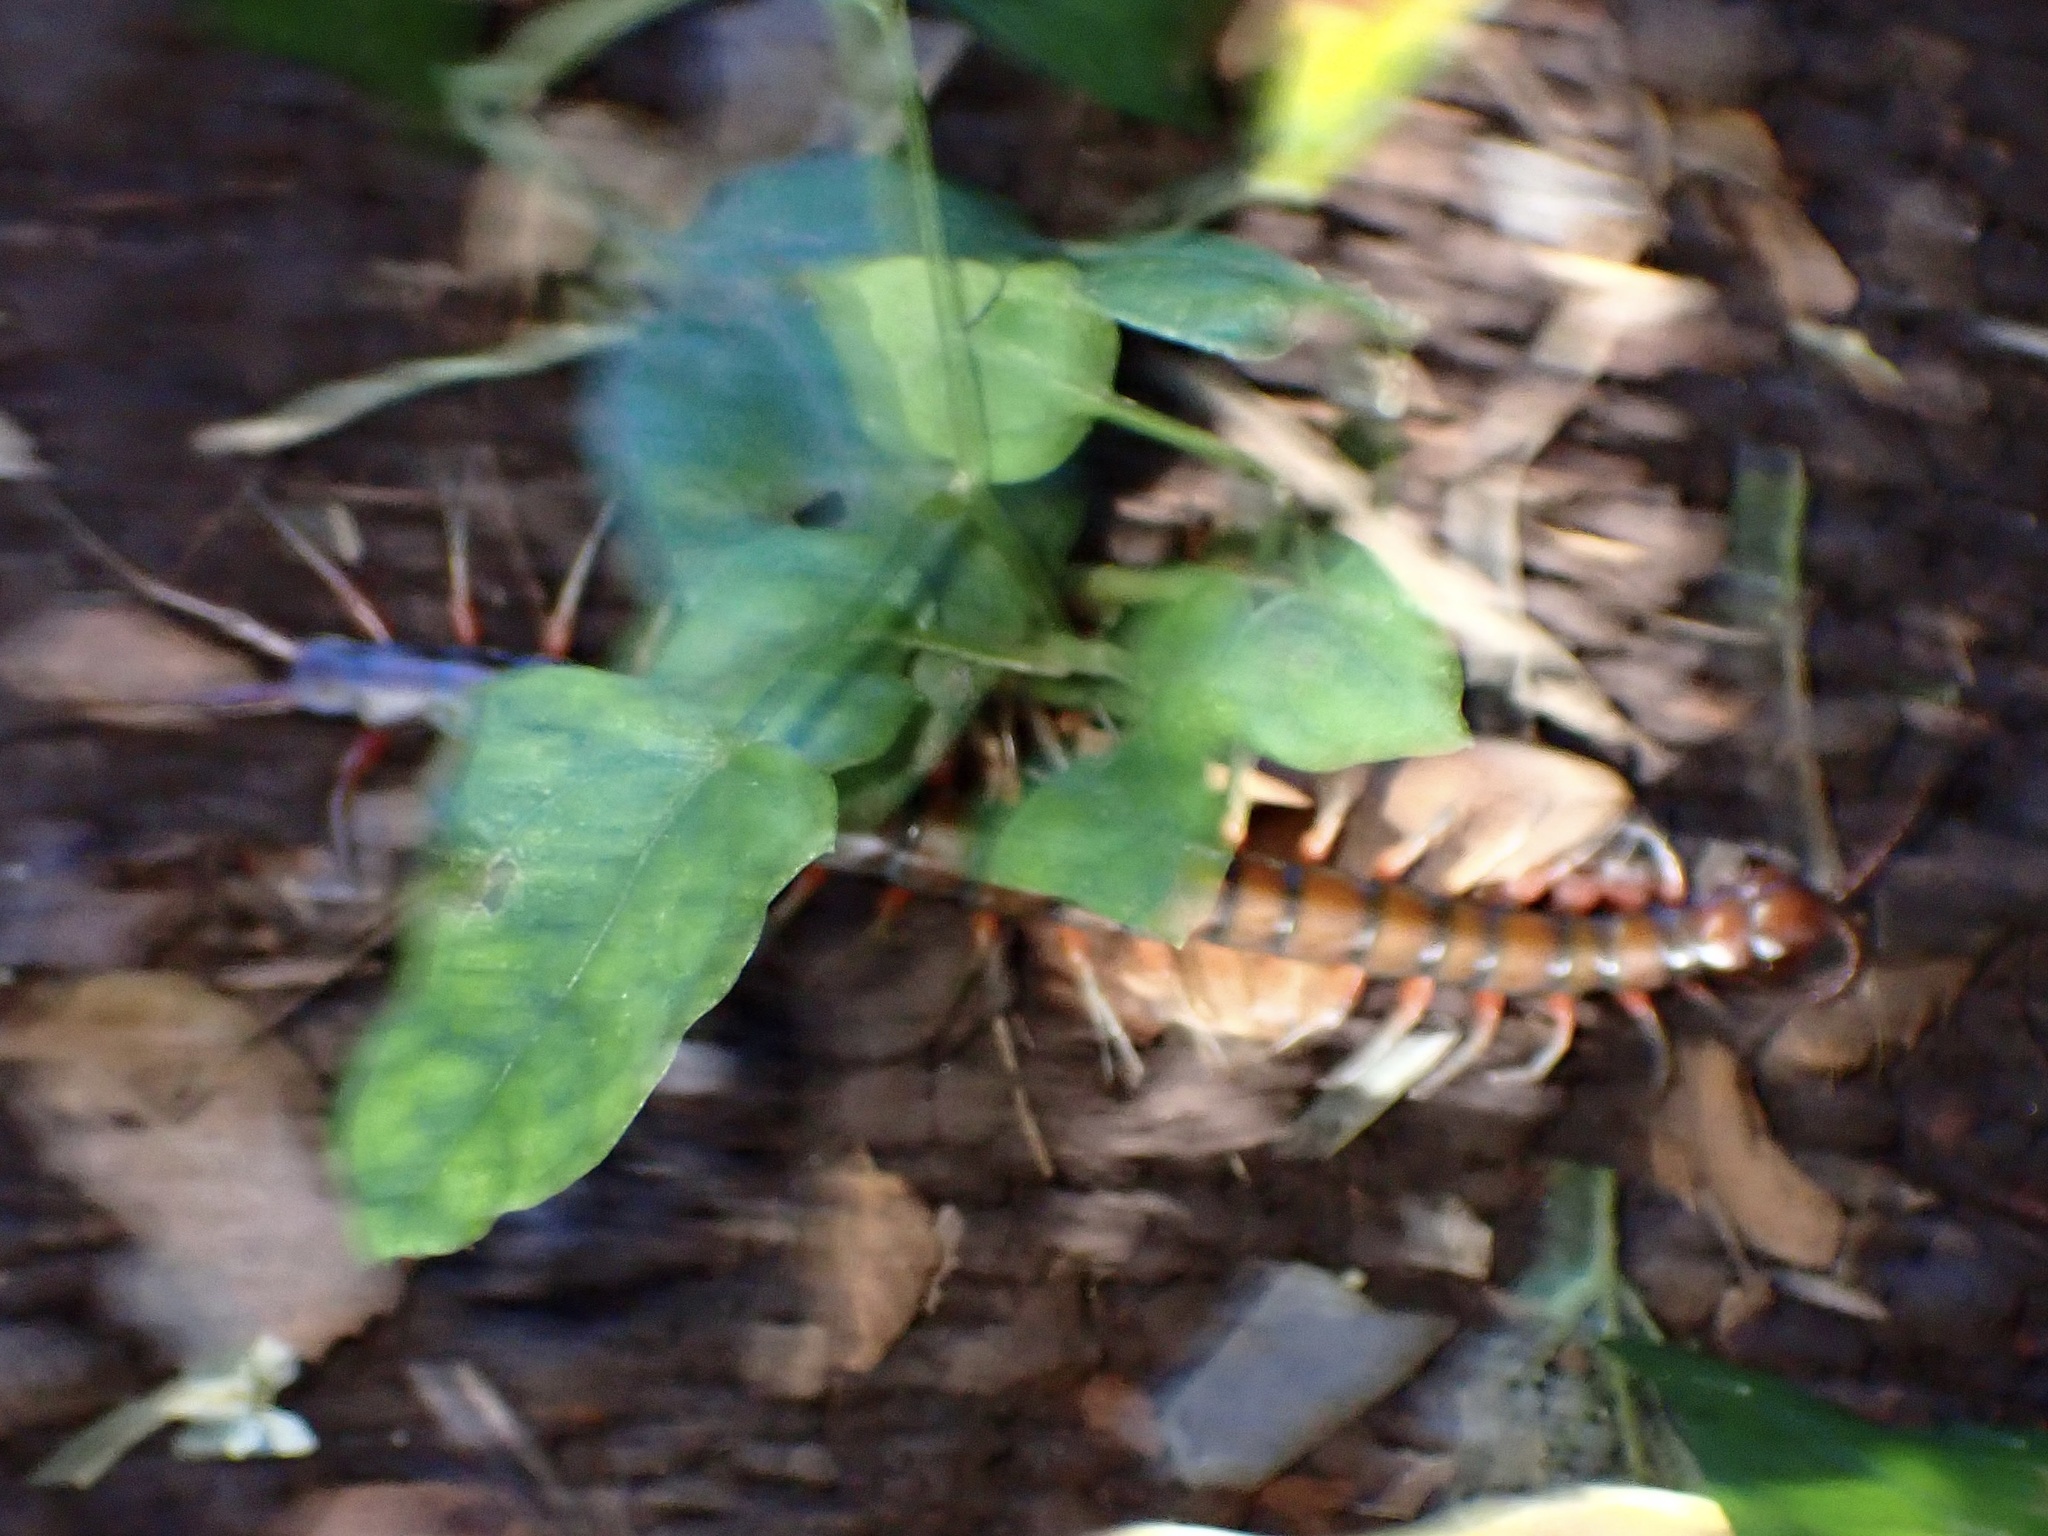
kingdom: Animalia
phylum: Arthropoda
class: Chilopoda
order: Scolopendromorpha
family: Scolopendridae
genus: Scolopendra
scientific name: Scolopendra subspinipes
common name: Centipede
